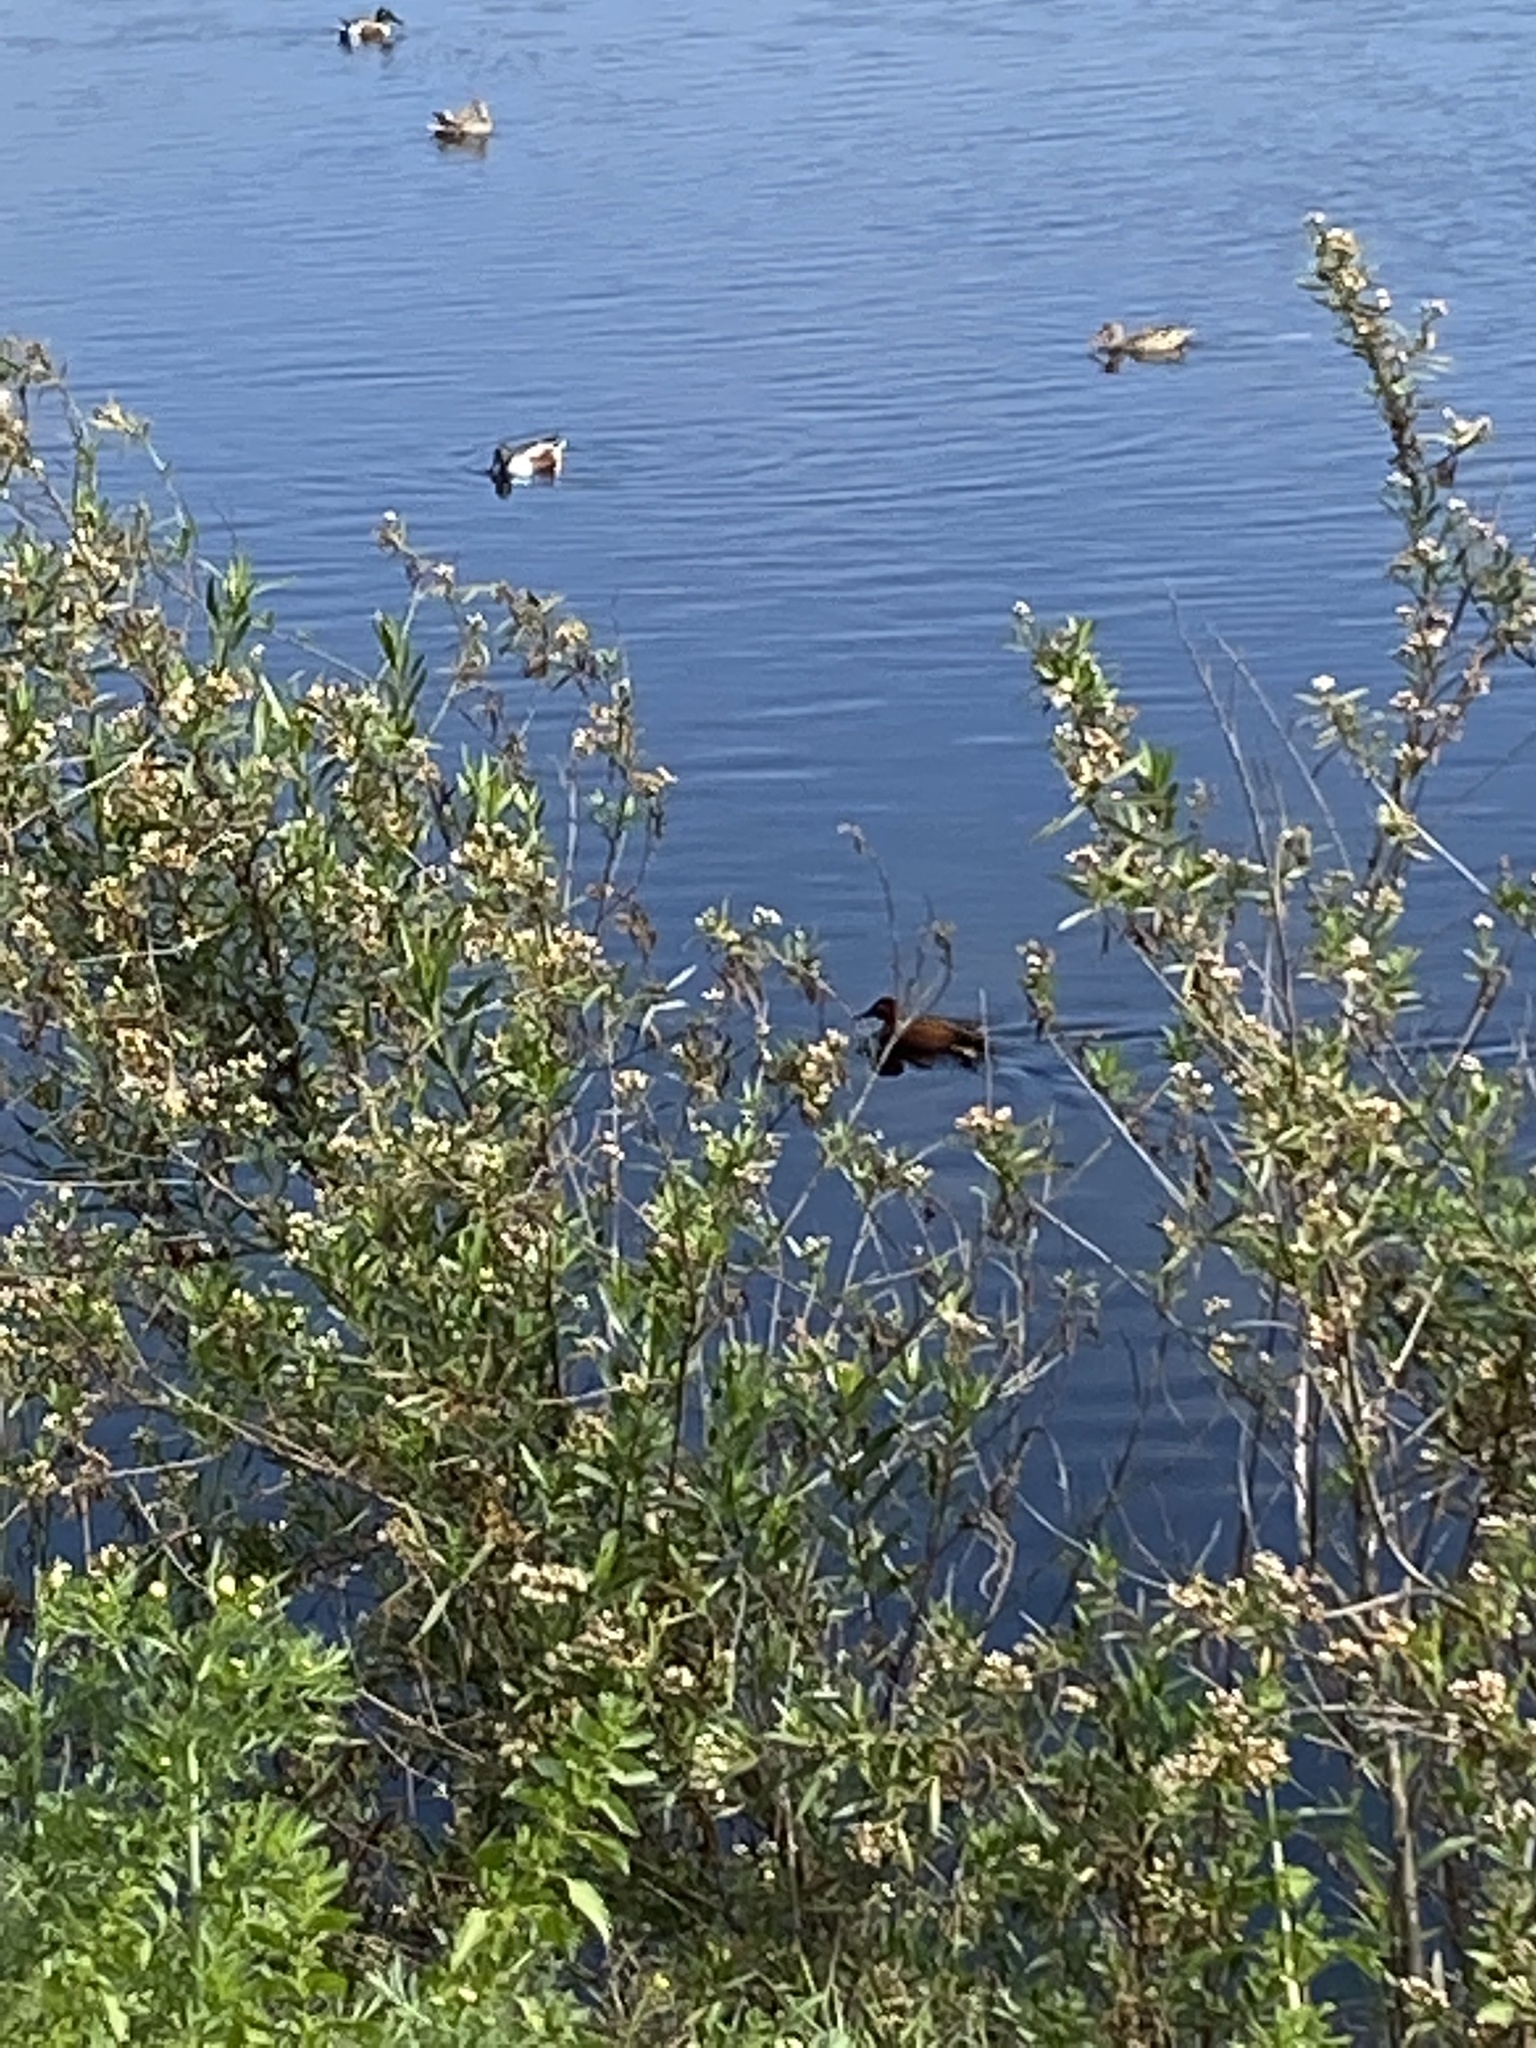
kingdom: Animalia
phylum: Chordata
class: Aves
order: Anseriformes
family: Anatidae
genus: Spatula
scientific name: Spatula cyanoptera
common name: Cinnamon teal
